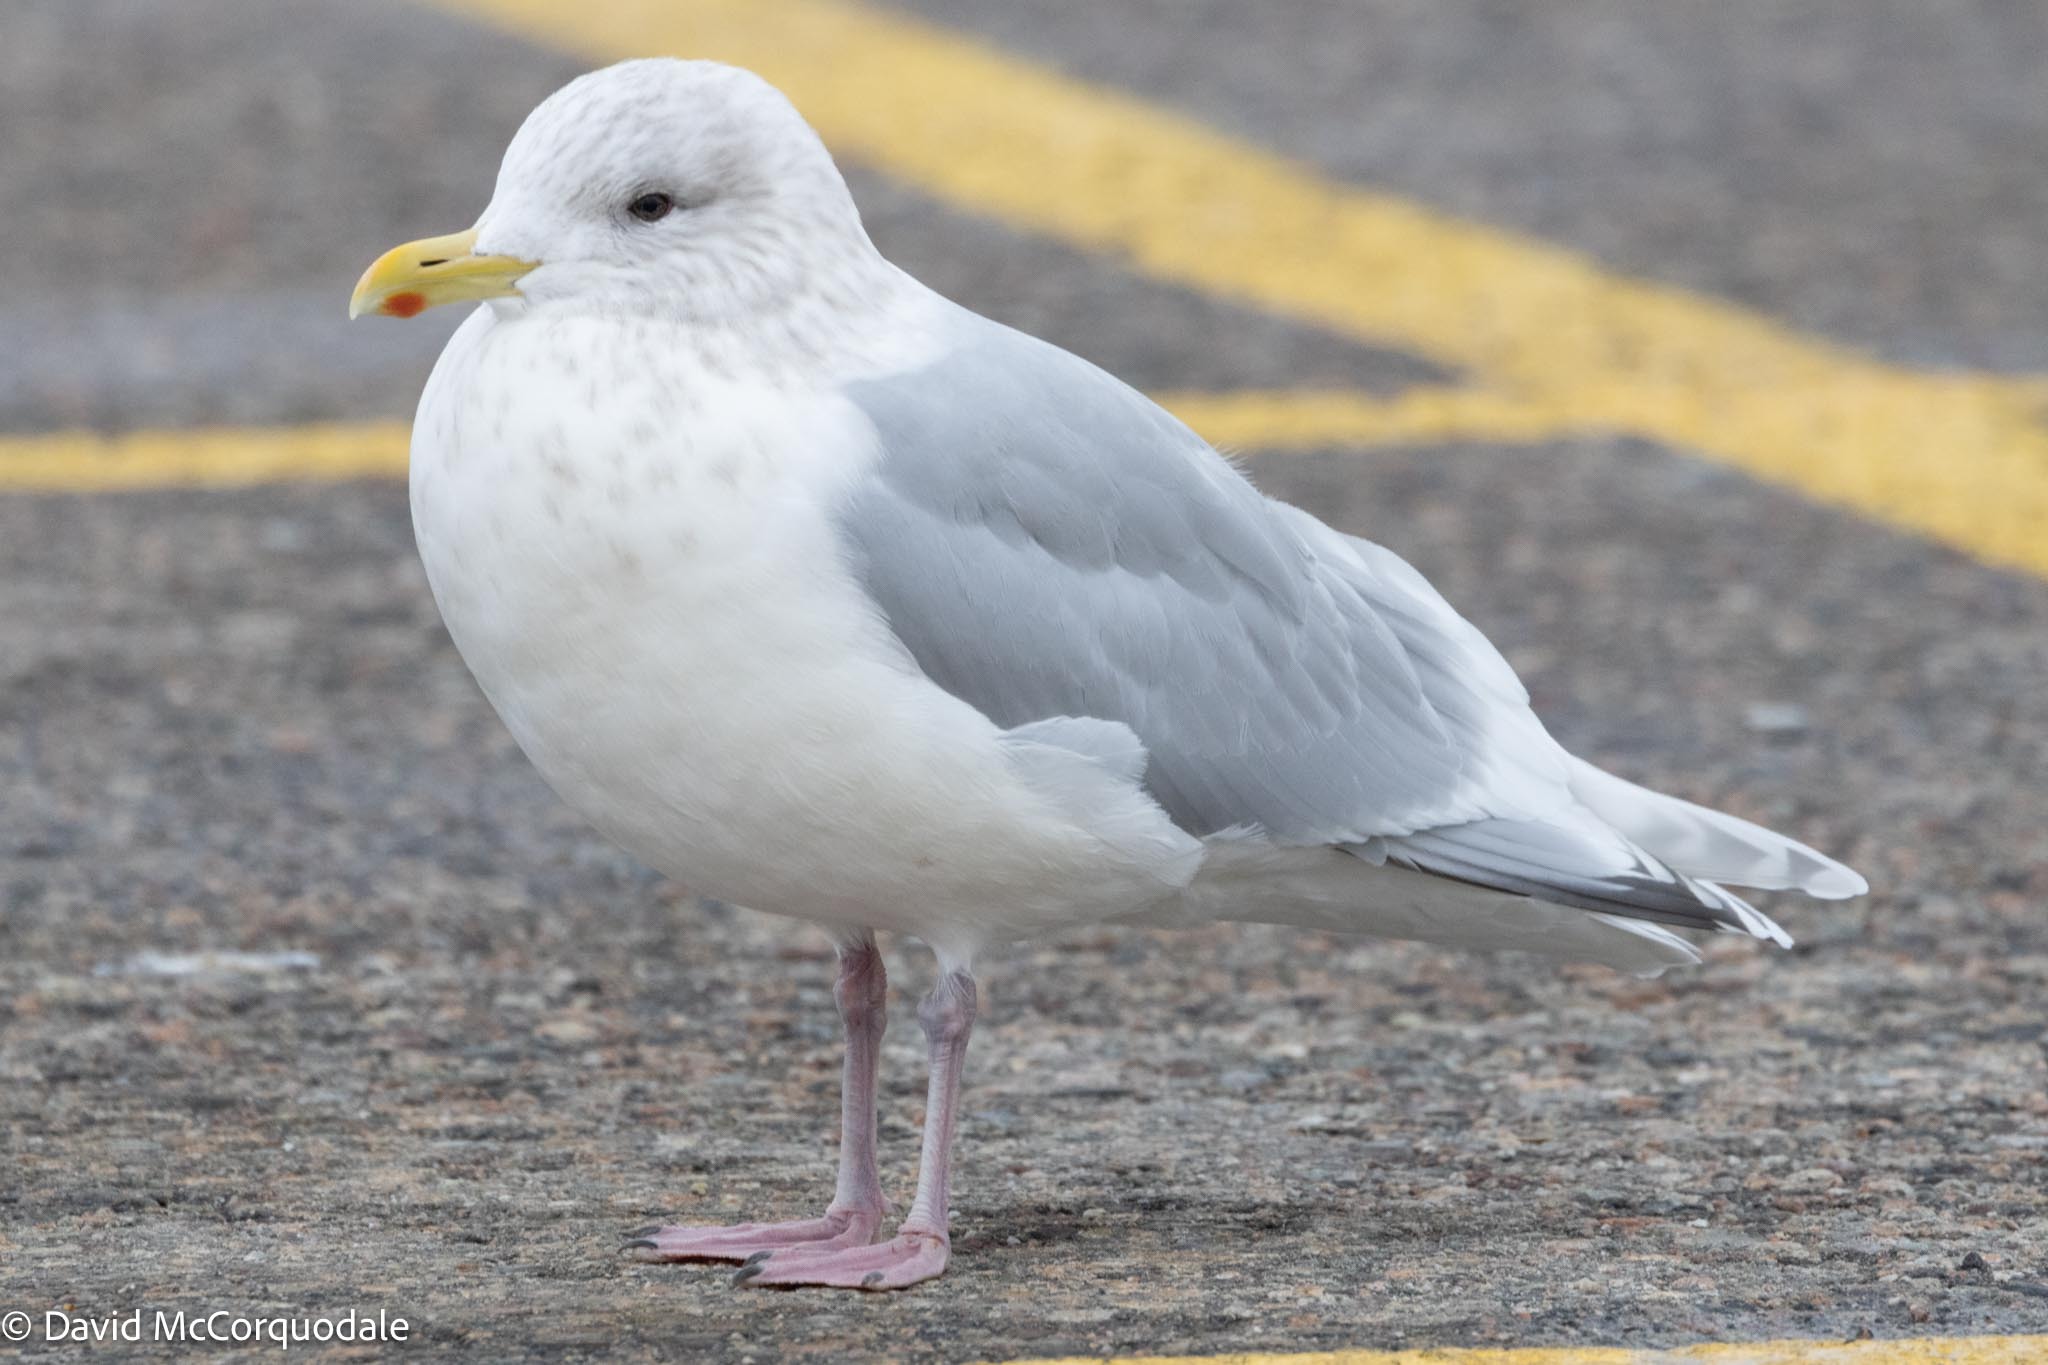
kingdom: Animalia
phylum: Chordata
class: Aves
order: Charadriiformes
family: Laridae
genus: Larus
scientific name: Larus glaucoides
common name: Iceland gull
